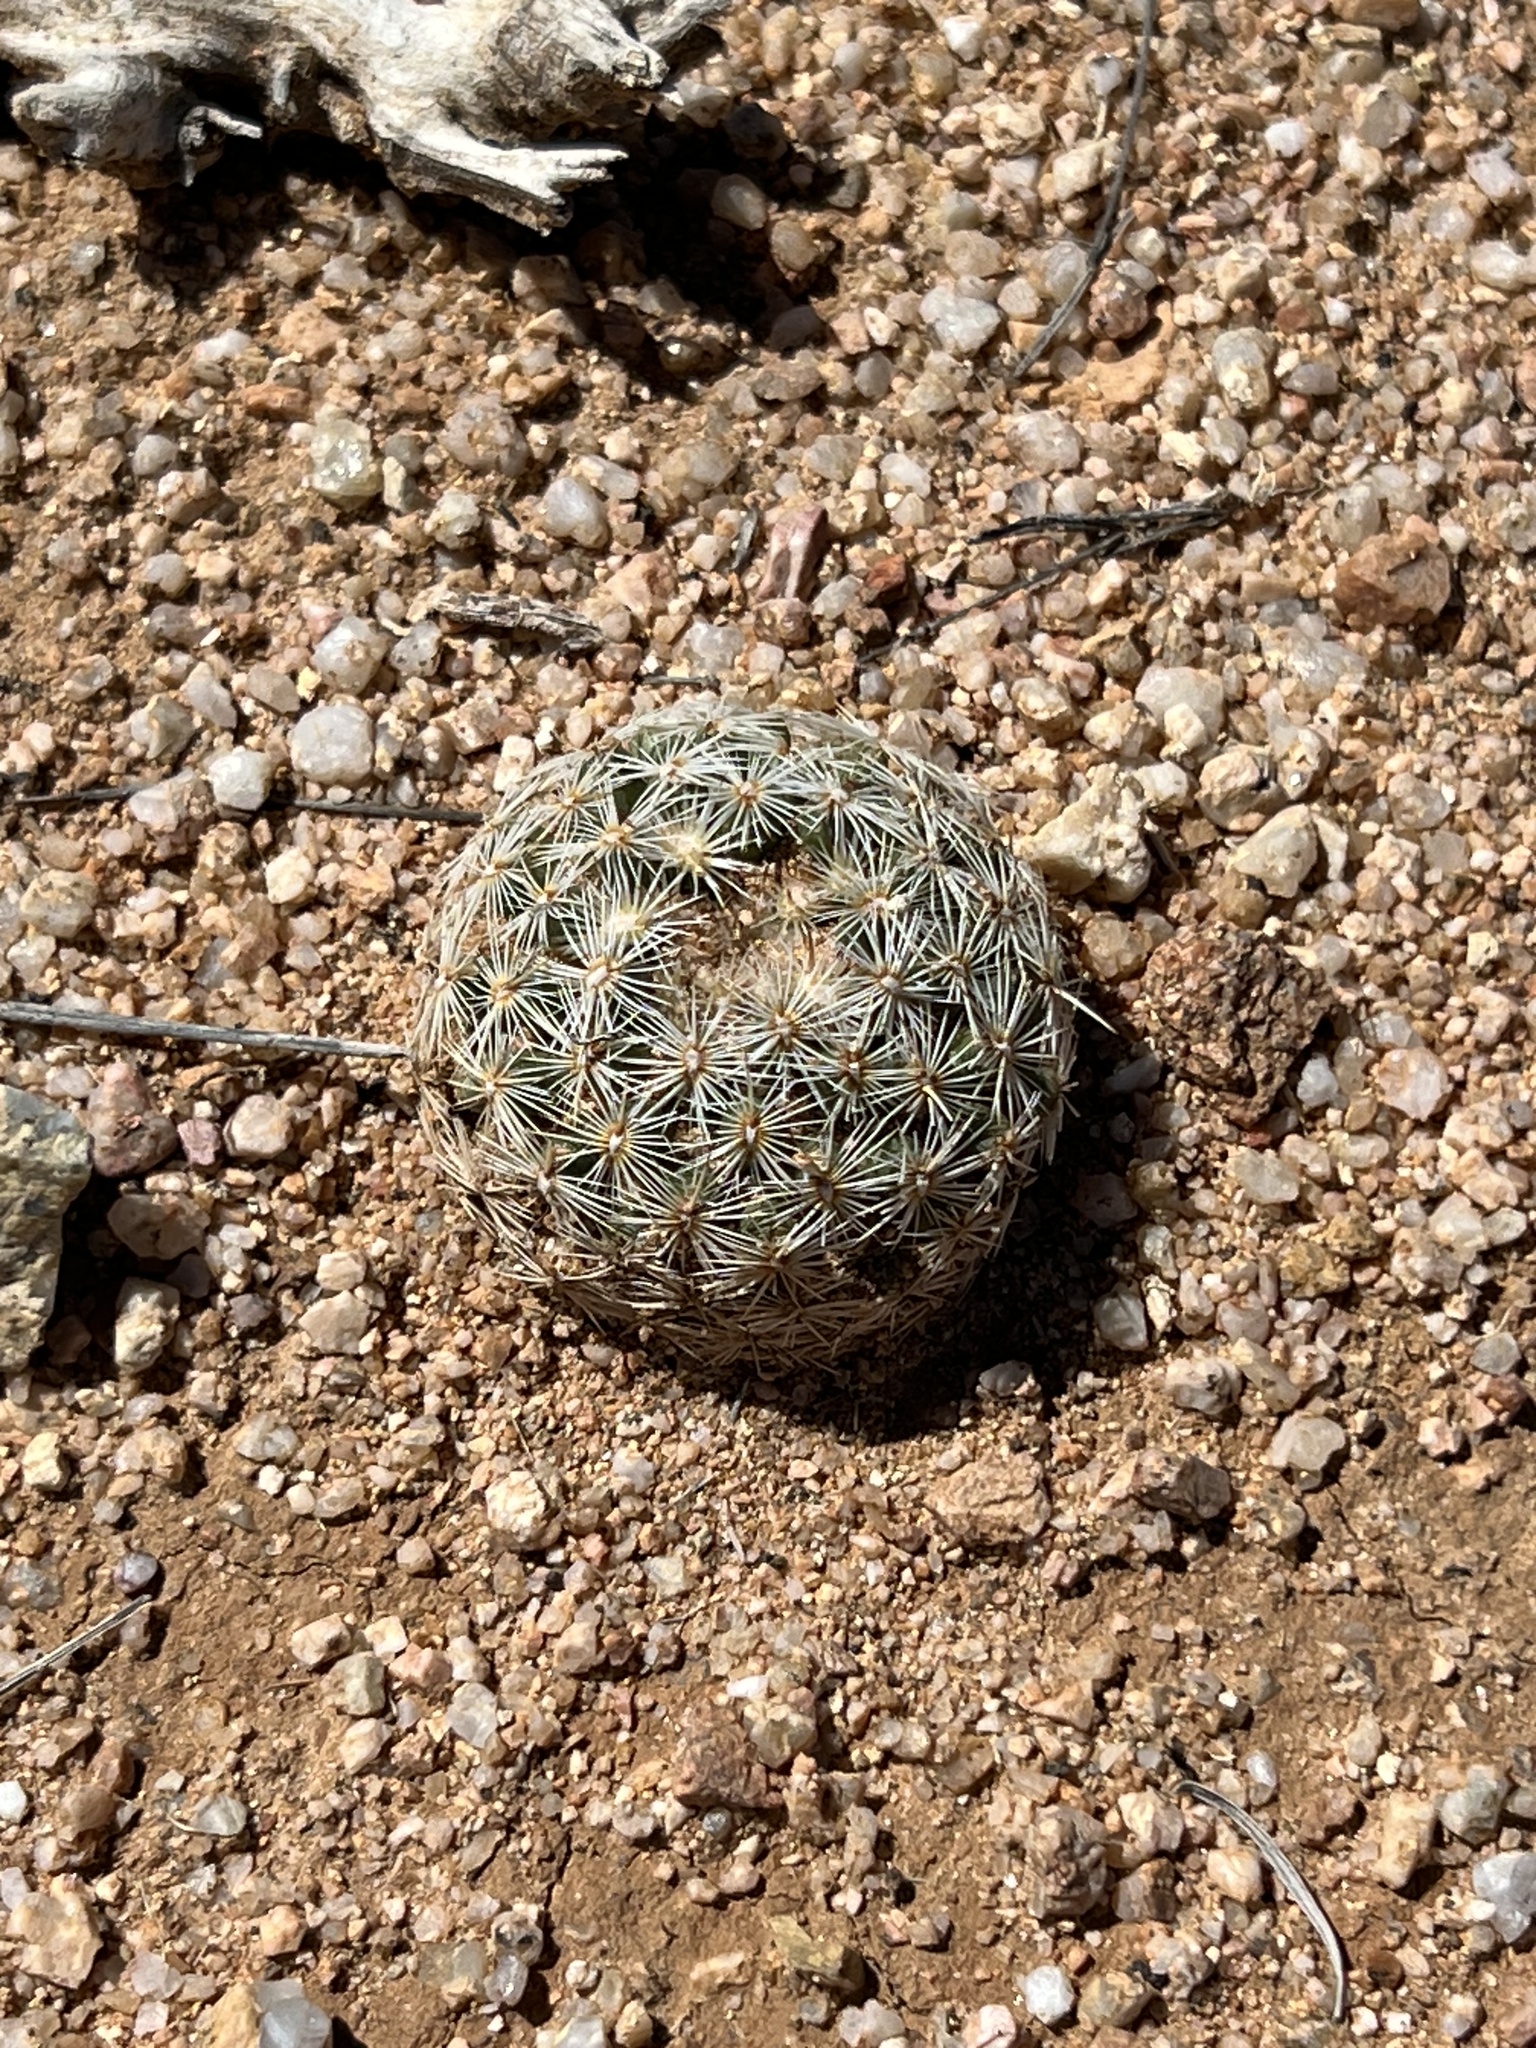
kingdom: Plantae
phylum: Tracheophyta
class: Magnoliopsida
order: Caryophyllales
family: Cactaceae
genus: Pelecyphora
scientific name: Pelecyphora vivipara
